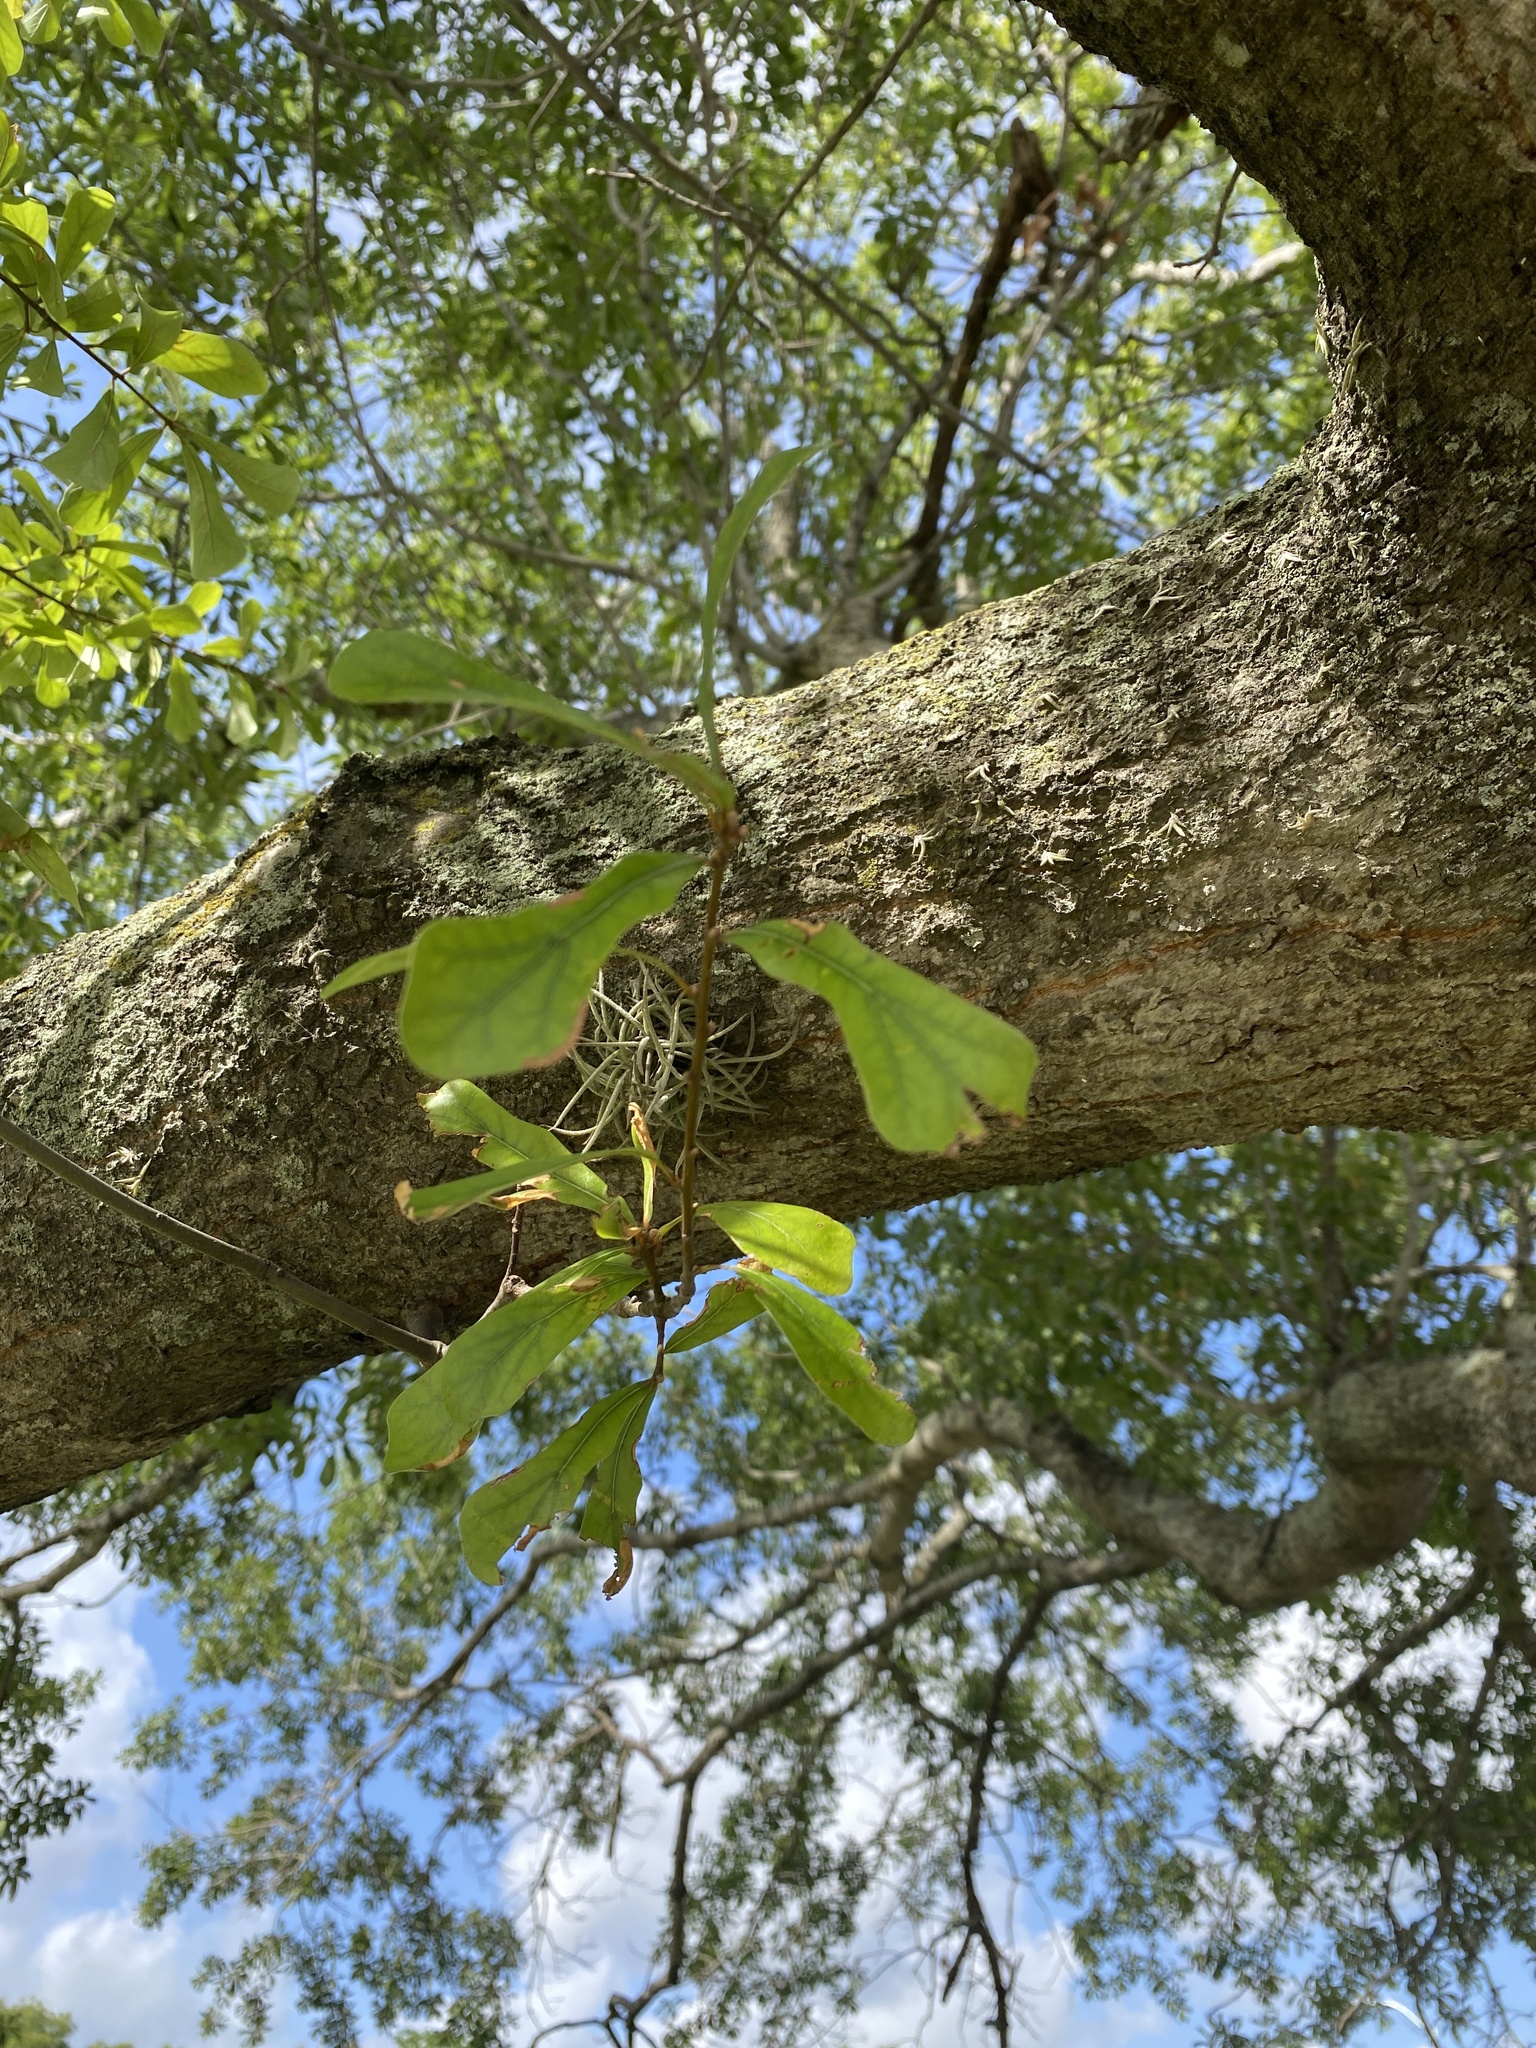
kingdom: Plantae
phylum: Tracheophyta
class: Magnoliopsida
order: Fagales
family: Fagaceae
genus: Quercus
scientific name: Quercus nigra
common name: Water oak
